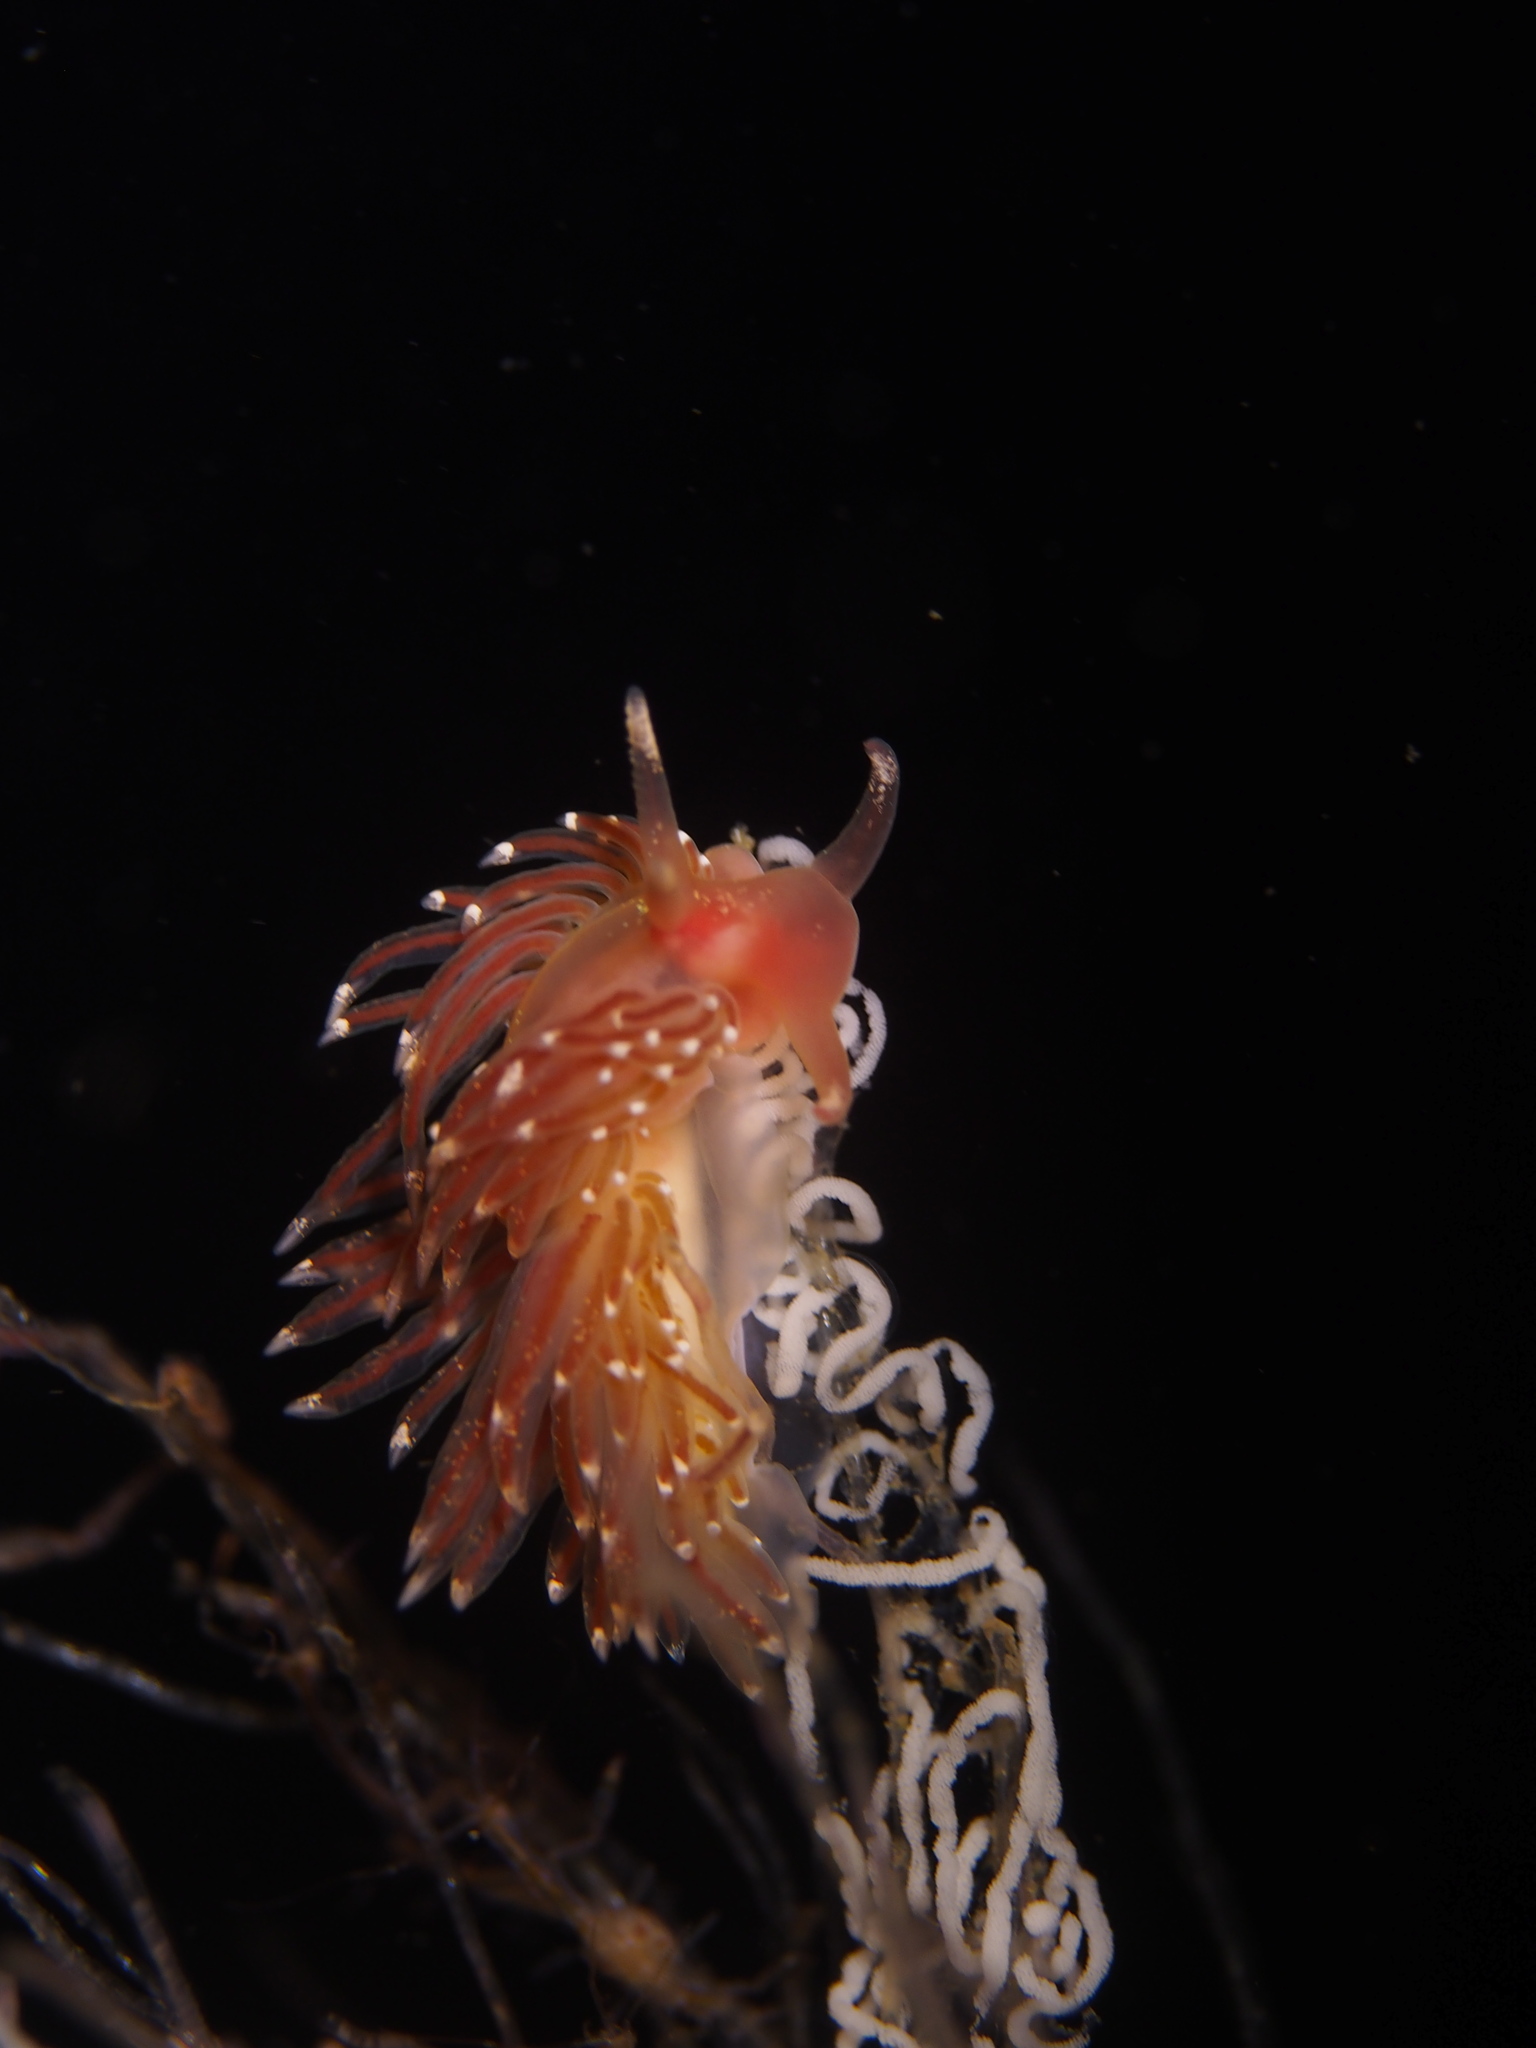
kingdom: Animalia
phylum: Mollusca
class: Gastropoda
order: Nudibranchia
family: Facelinidae
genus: Facelina
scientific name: Facelina bostoniensis
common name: Boston facelina
